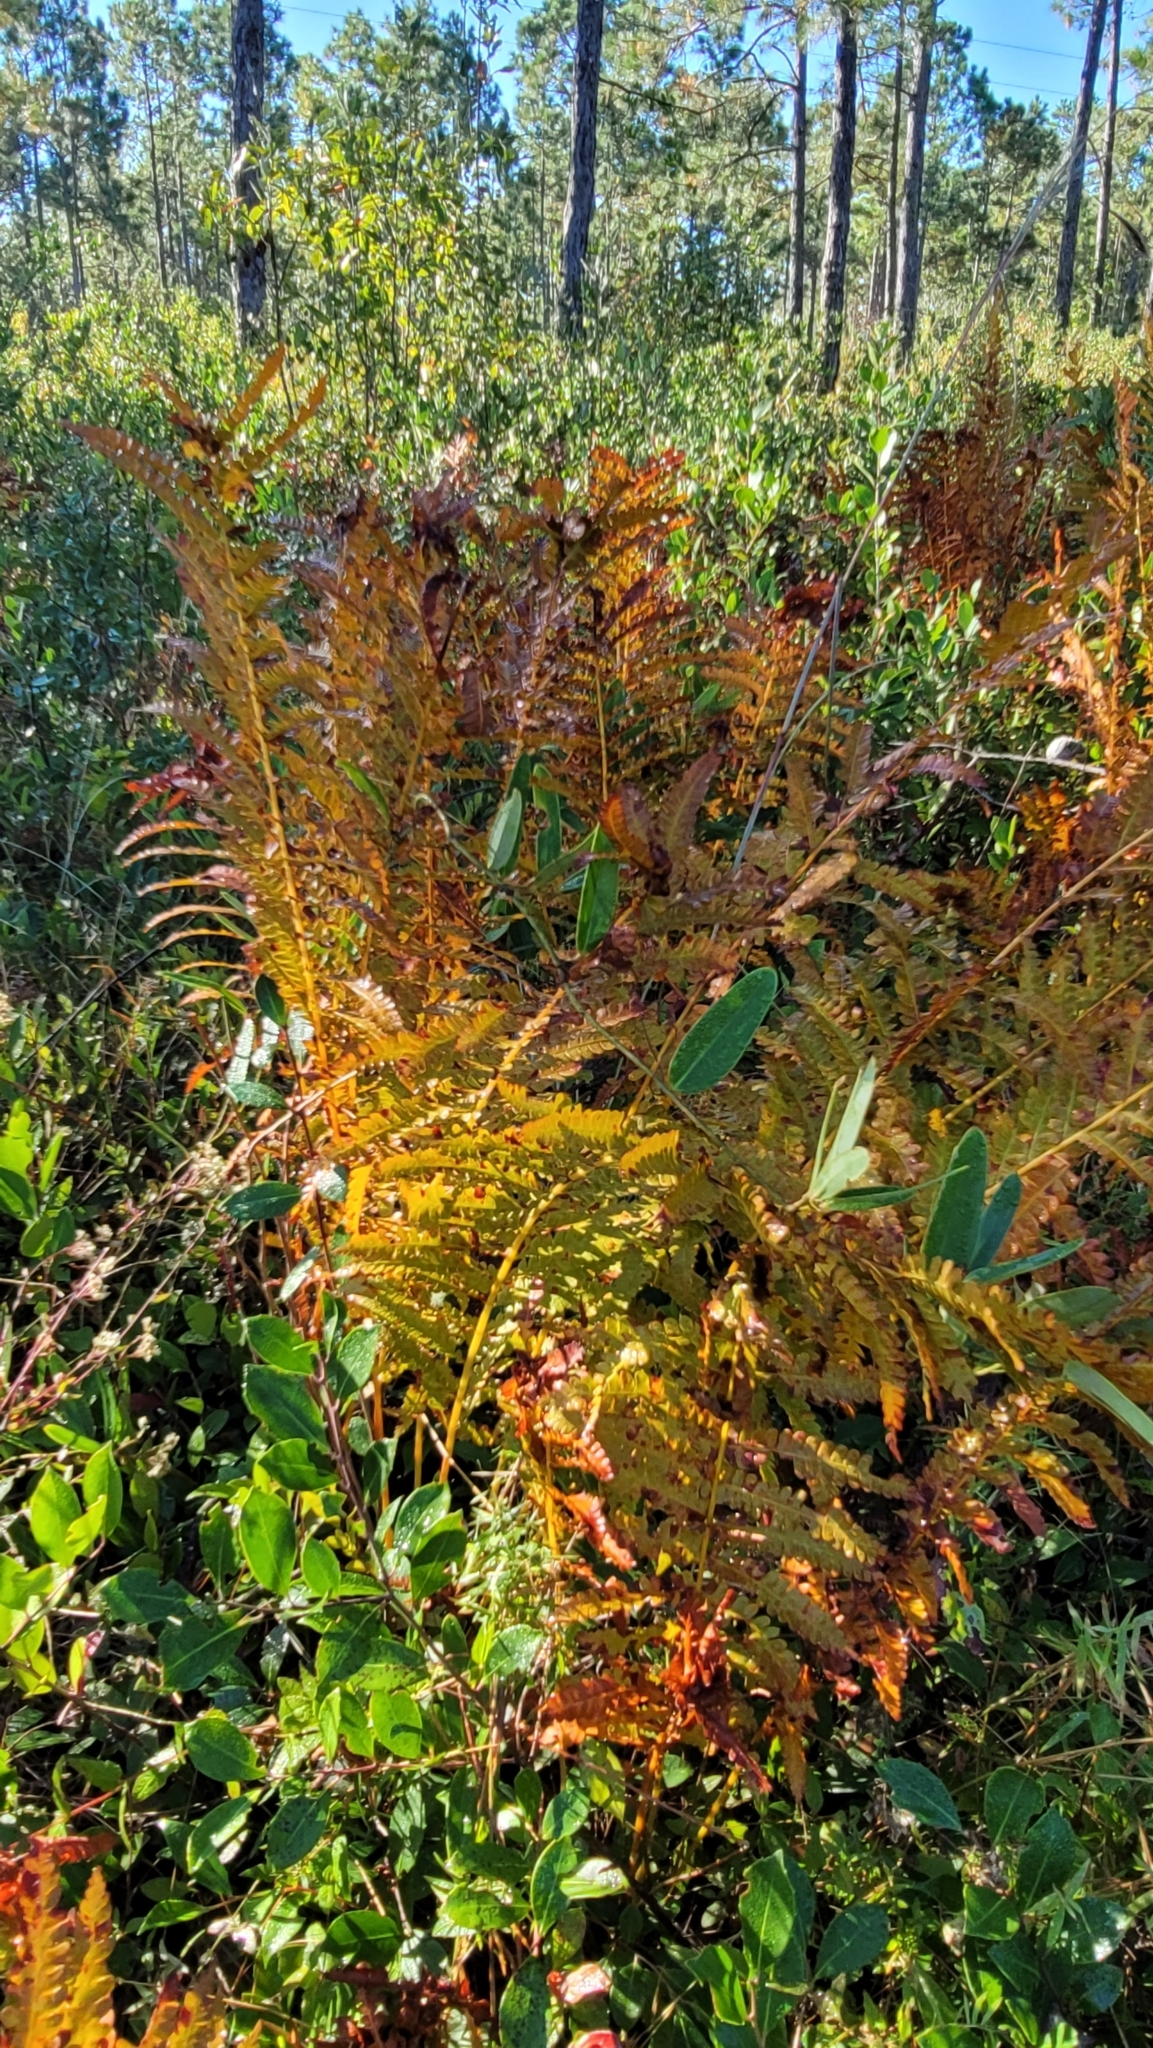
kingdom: Plantae
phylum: Tracheophyta
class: Polypodiopsida
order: Osmundales
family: Osmundaceae
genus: Osmundastrum
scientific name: Osmundastrum cinnamomeum
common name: Cinnamon fern
